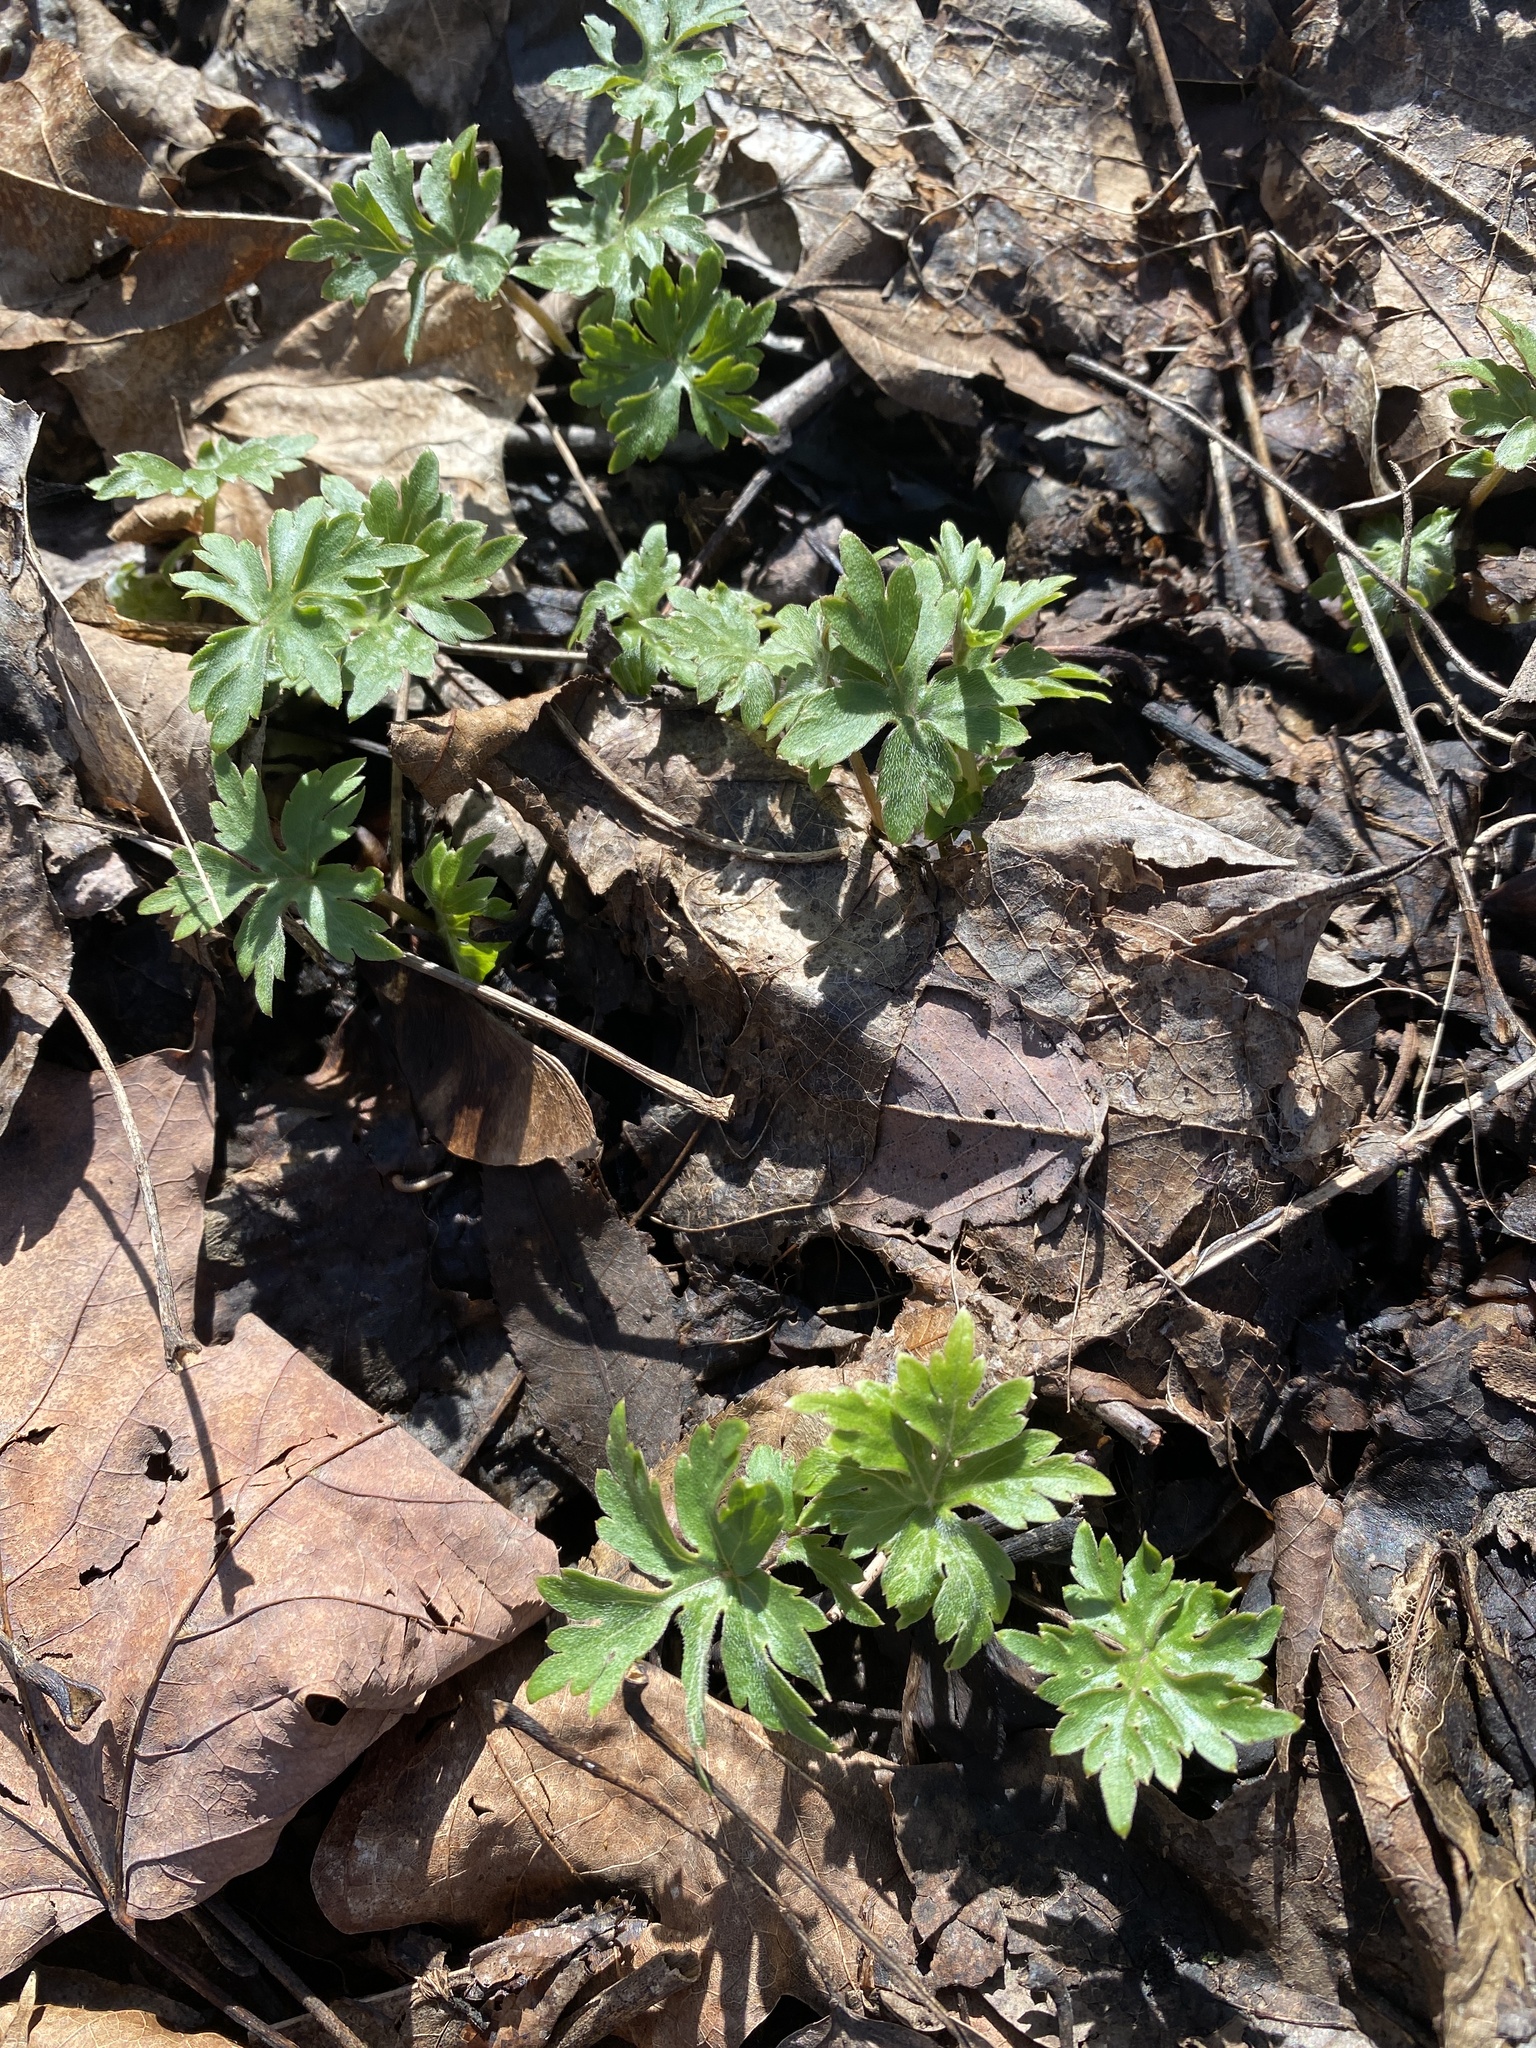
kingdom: Plantae
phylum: Tracheophyta
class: Magnoliopsida
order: Boraginales
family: Hydrophyllaceae
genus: Hydrophyllum
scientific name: Hydrophyllum canadense
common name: Canada waterleaf
